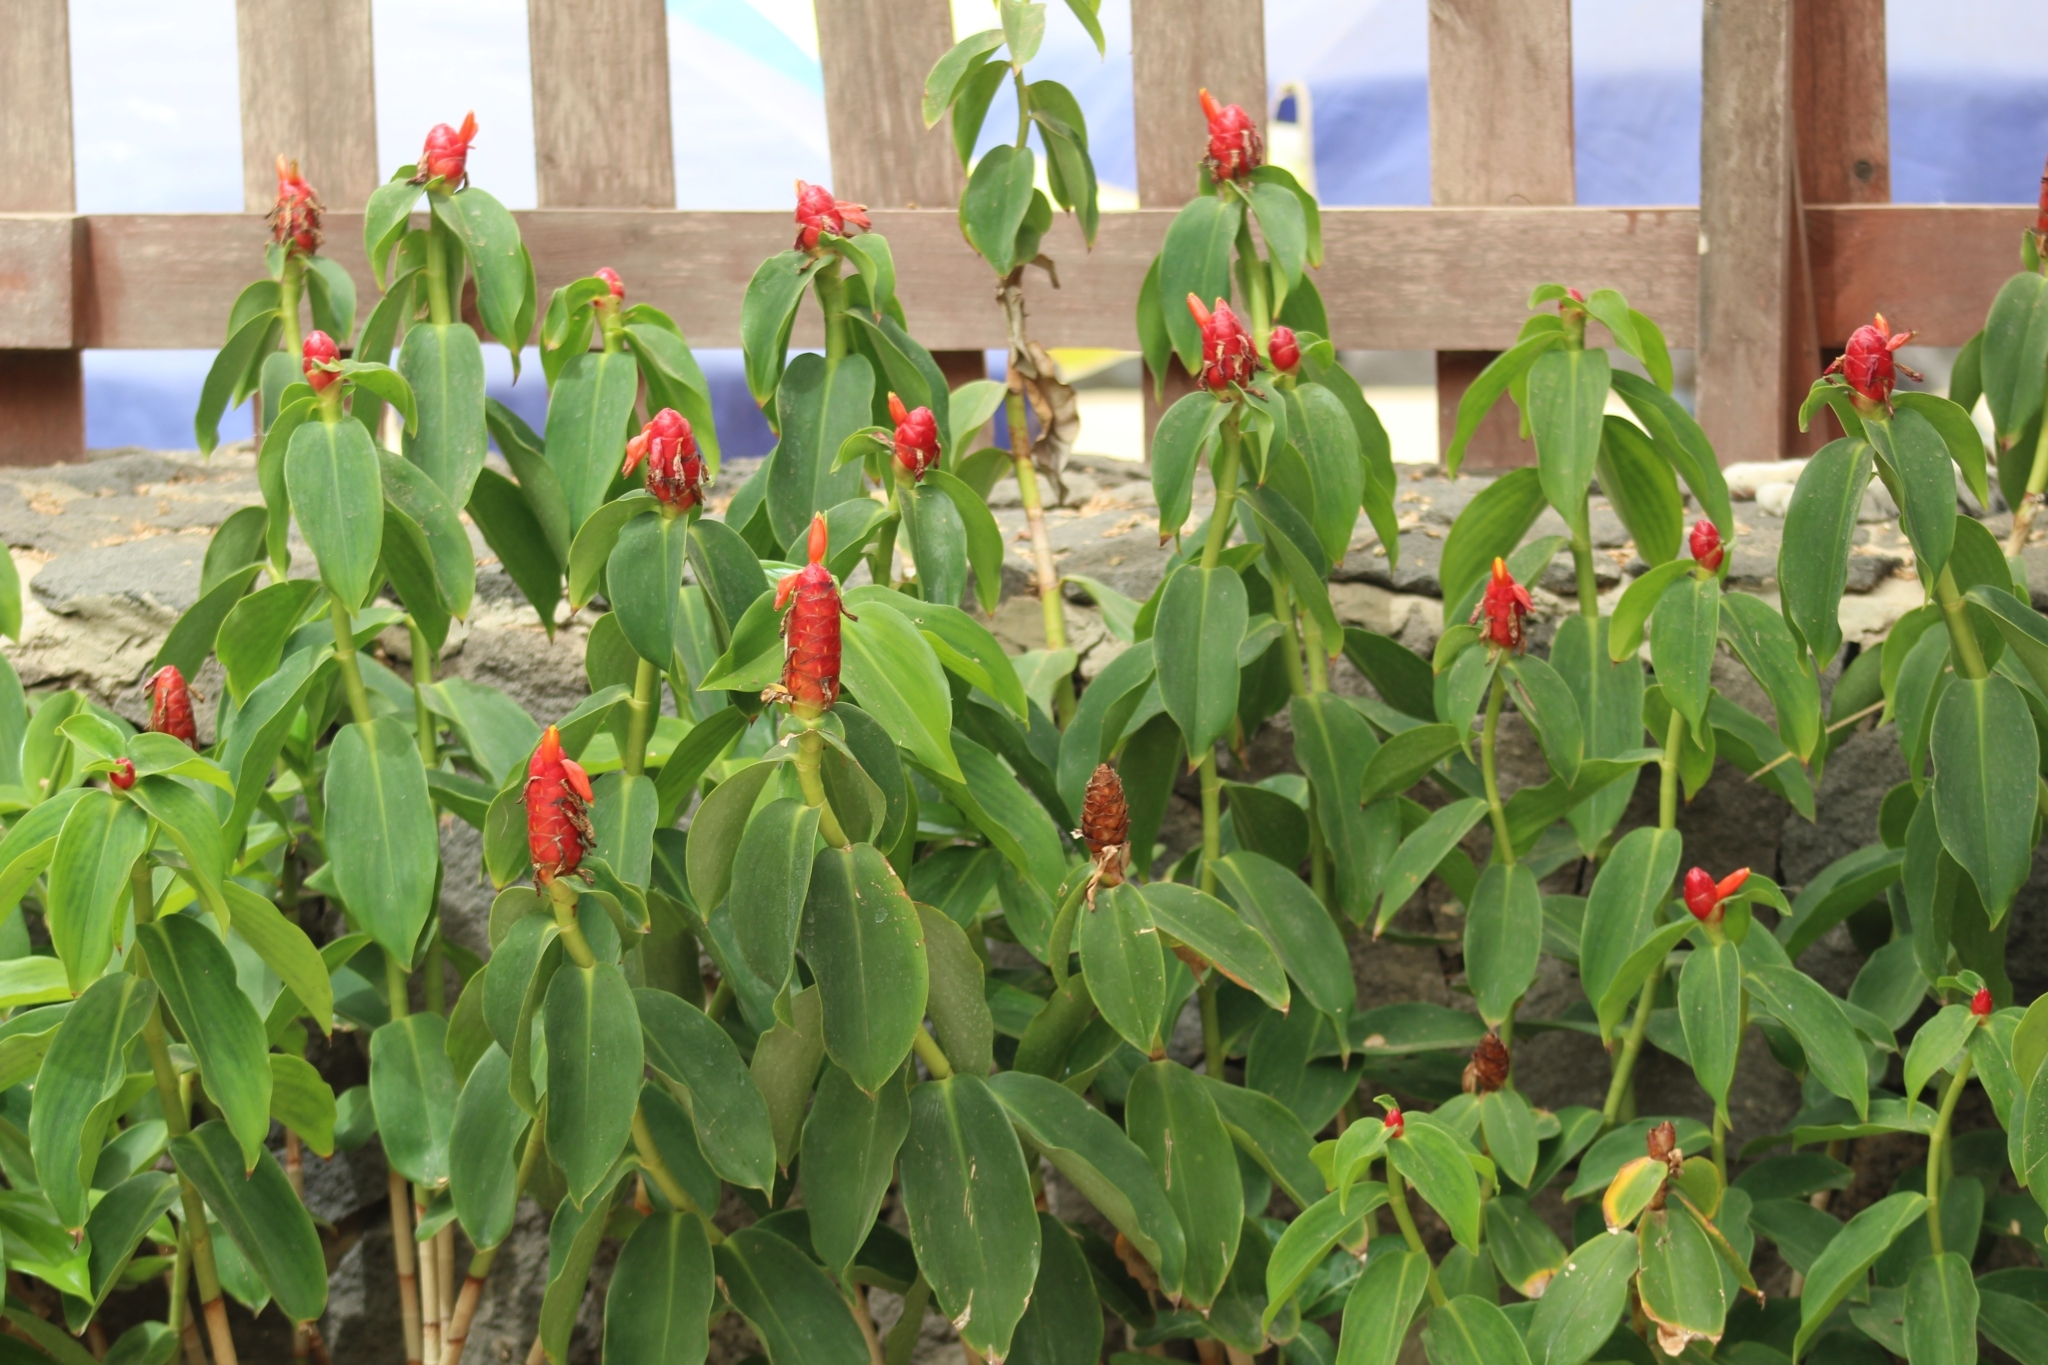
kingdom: Plantae
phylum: Tracheophyta
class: Liliopsida
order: Zingiberales
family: Costaceae
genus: Costus
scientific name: Costus woodsonii
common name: Scarlet spiral-ginger
